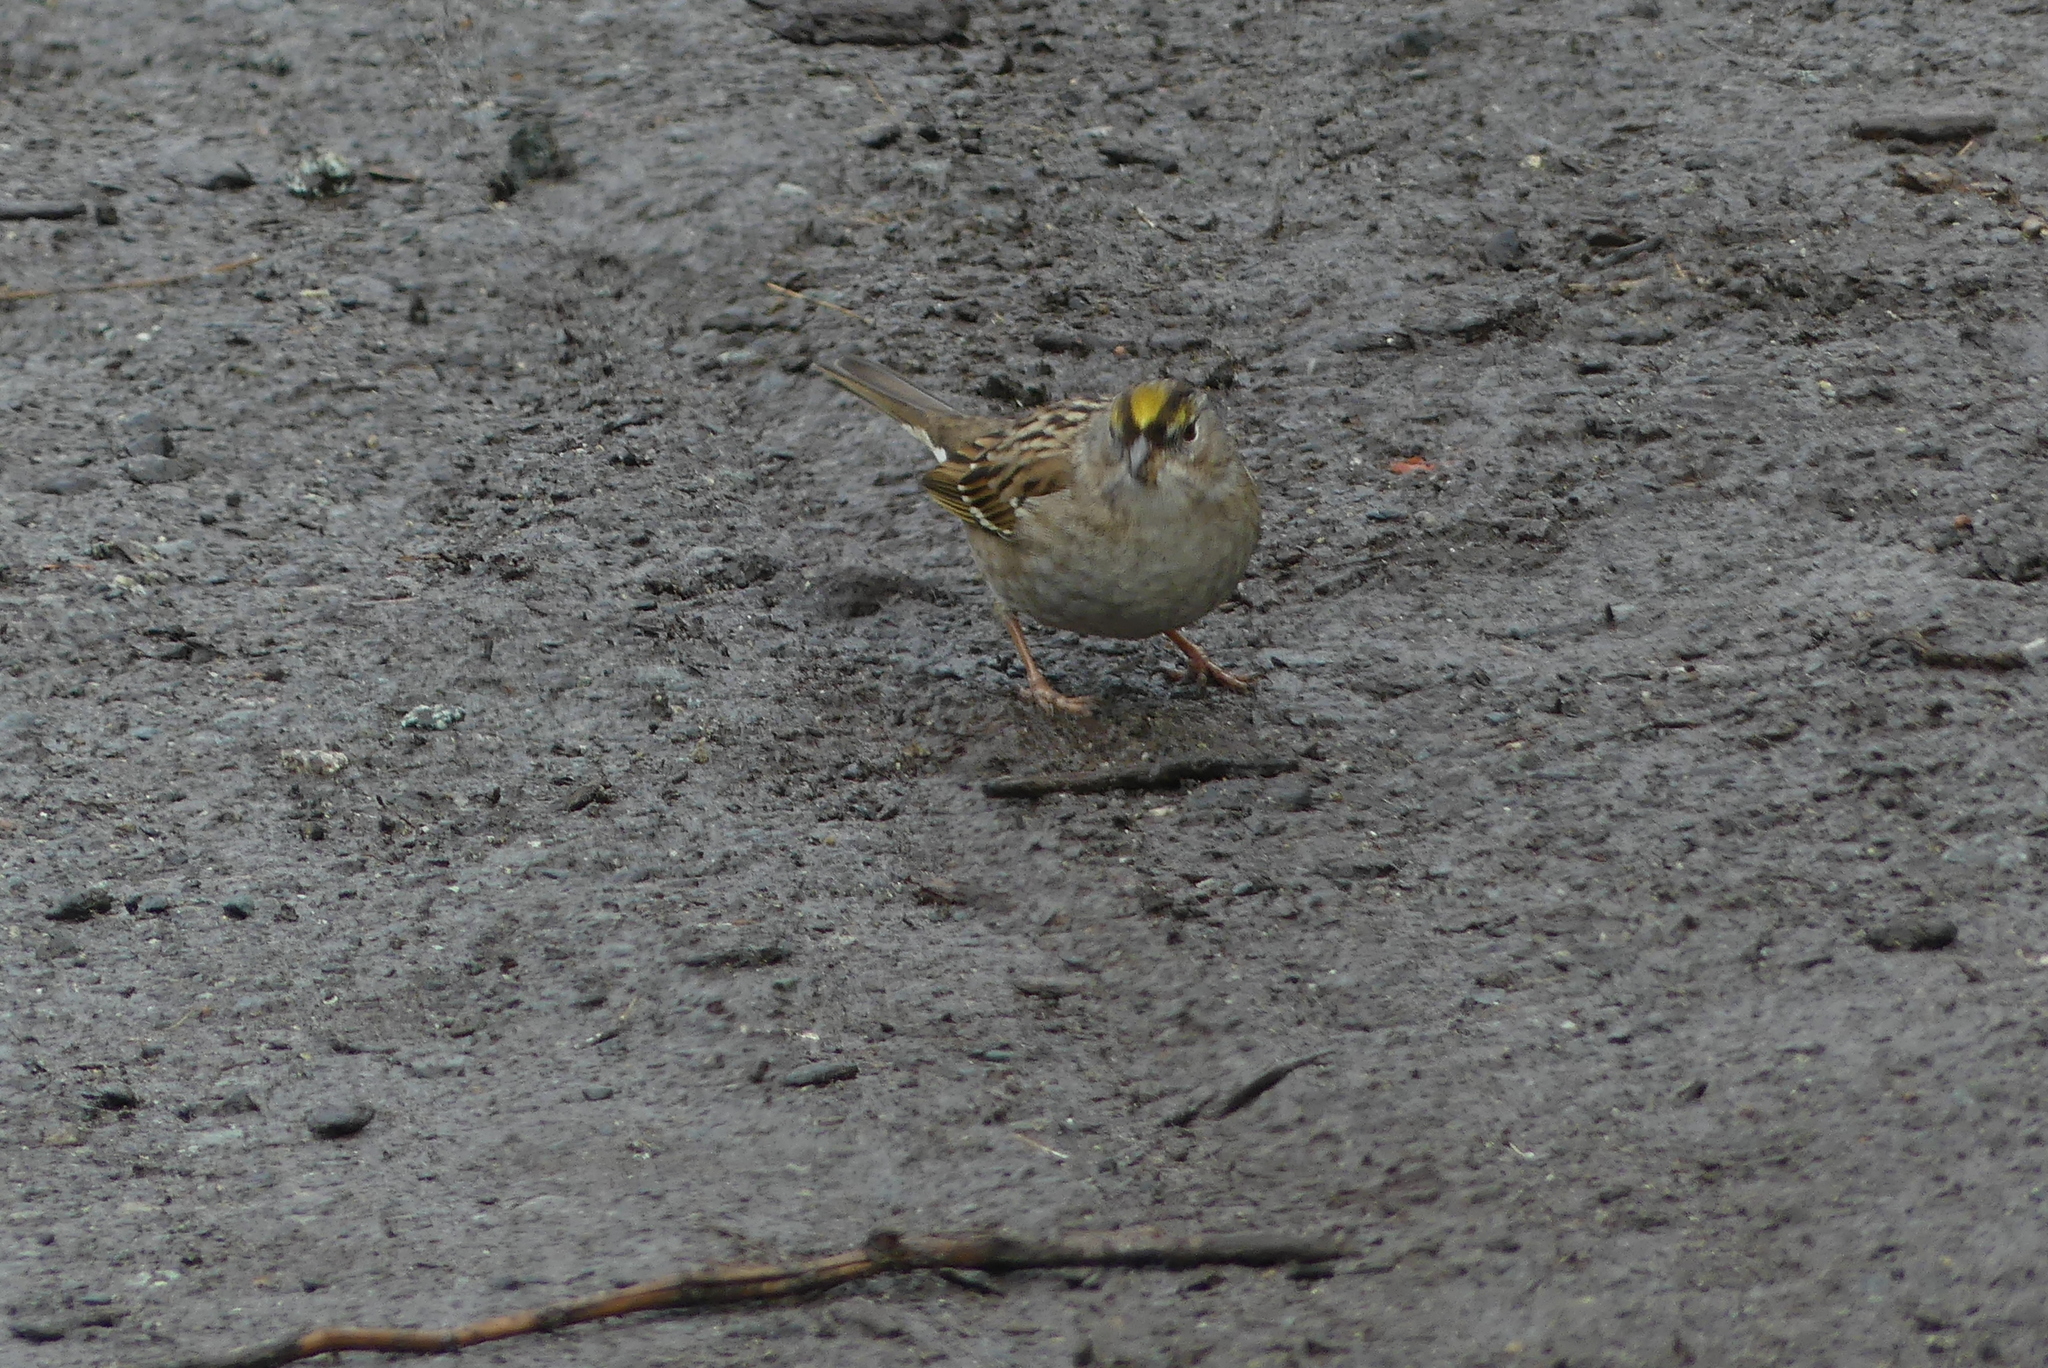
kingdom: Animalia
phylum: Chordata
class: Aves
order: Passeriformes
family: Passerellidae
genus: Zonotrichia
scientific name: Zonotrichia atricapilla
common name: Golden-crowned sparrow
